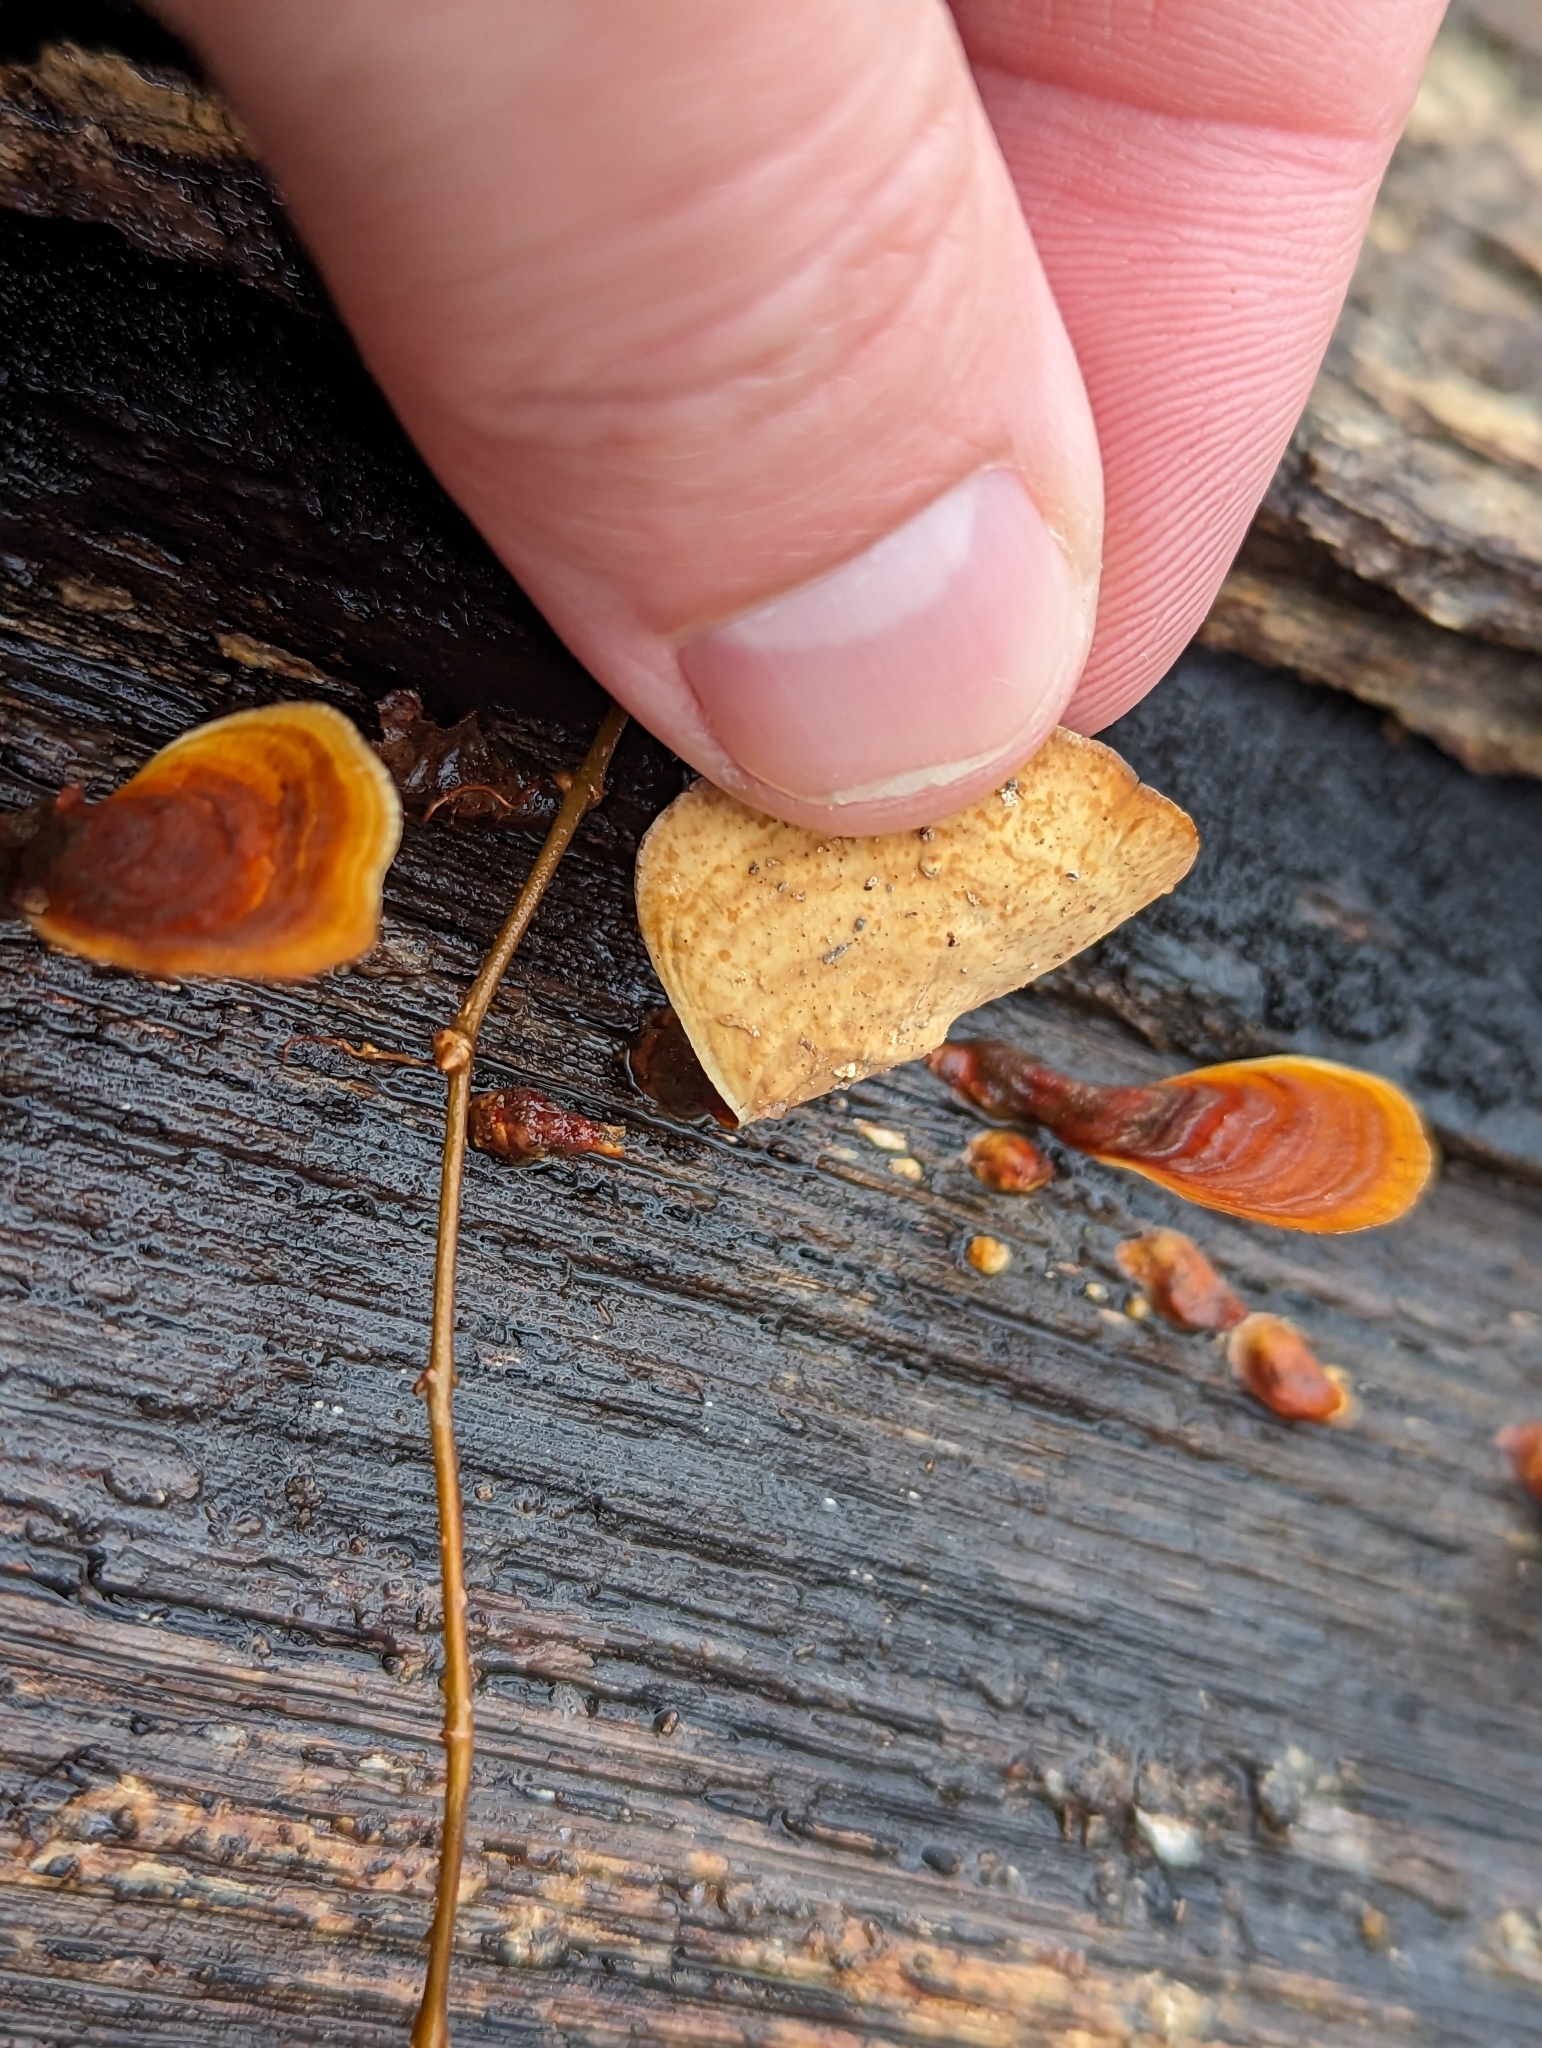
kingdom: Fungi
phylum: Basidiomycota
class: Agaricomycetes
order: Russulales
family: Stereaceae
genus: Stereum
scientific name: Stereum lobatum
